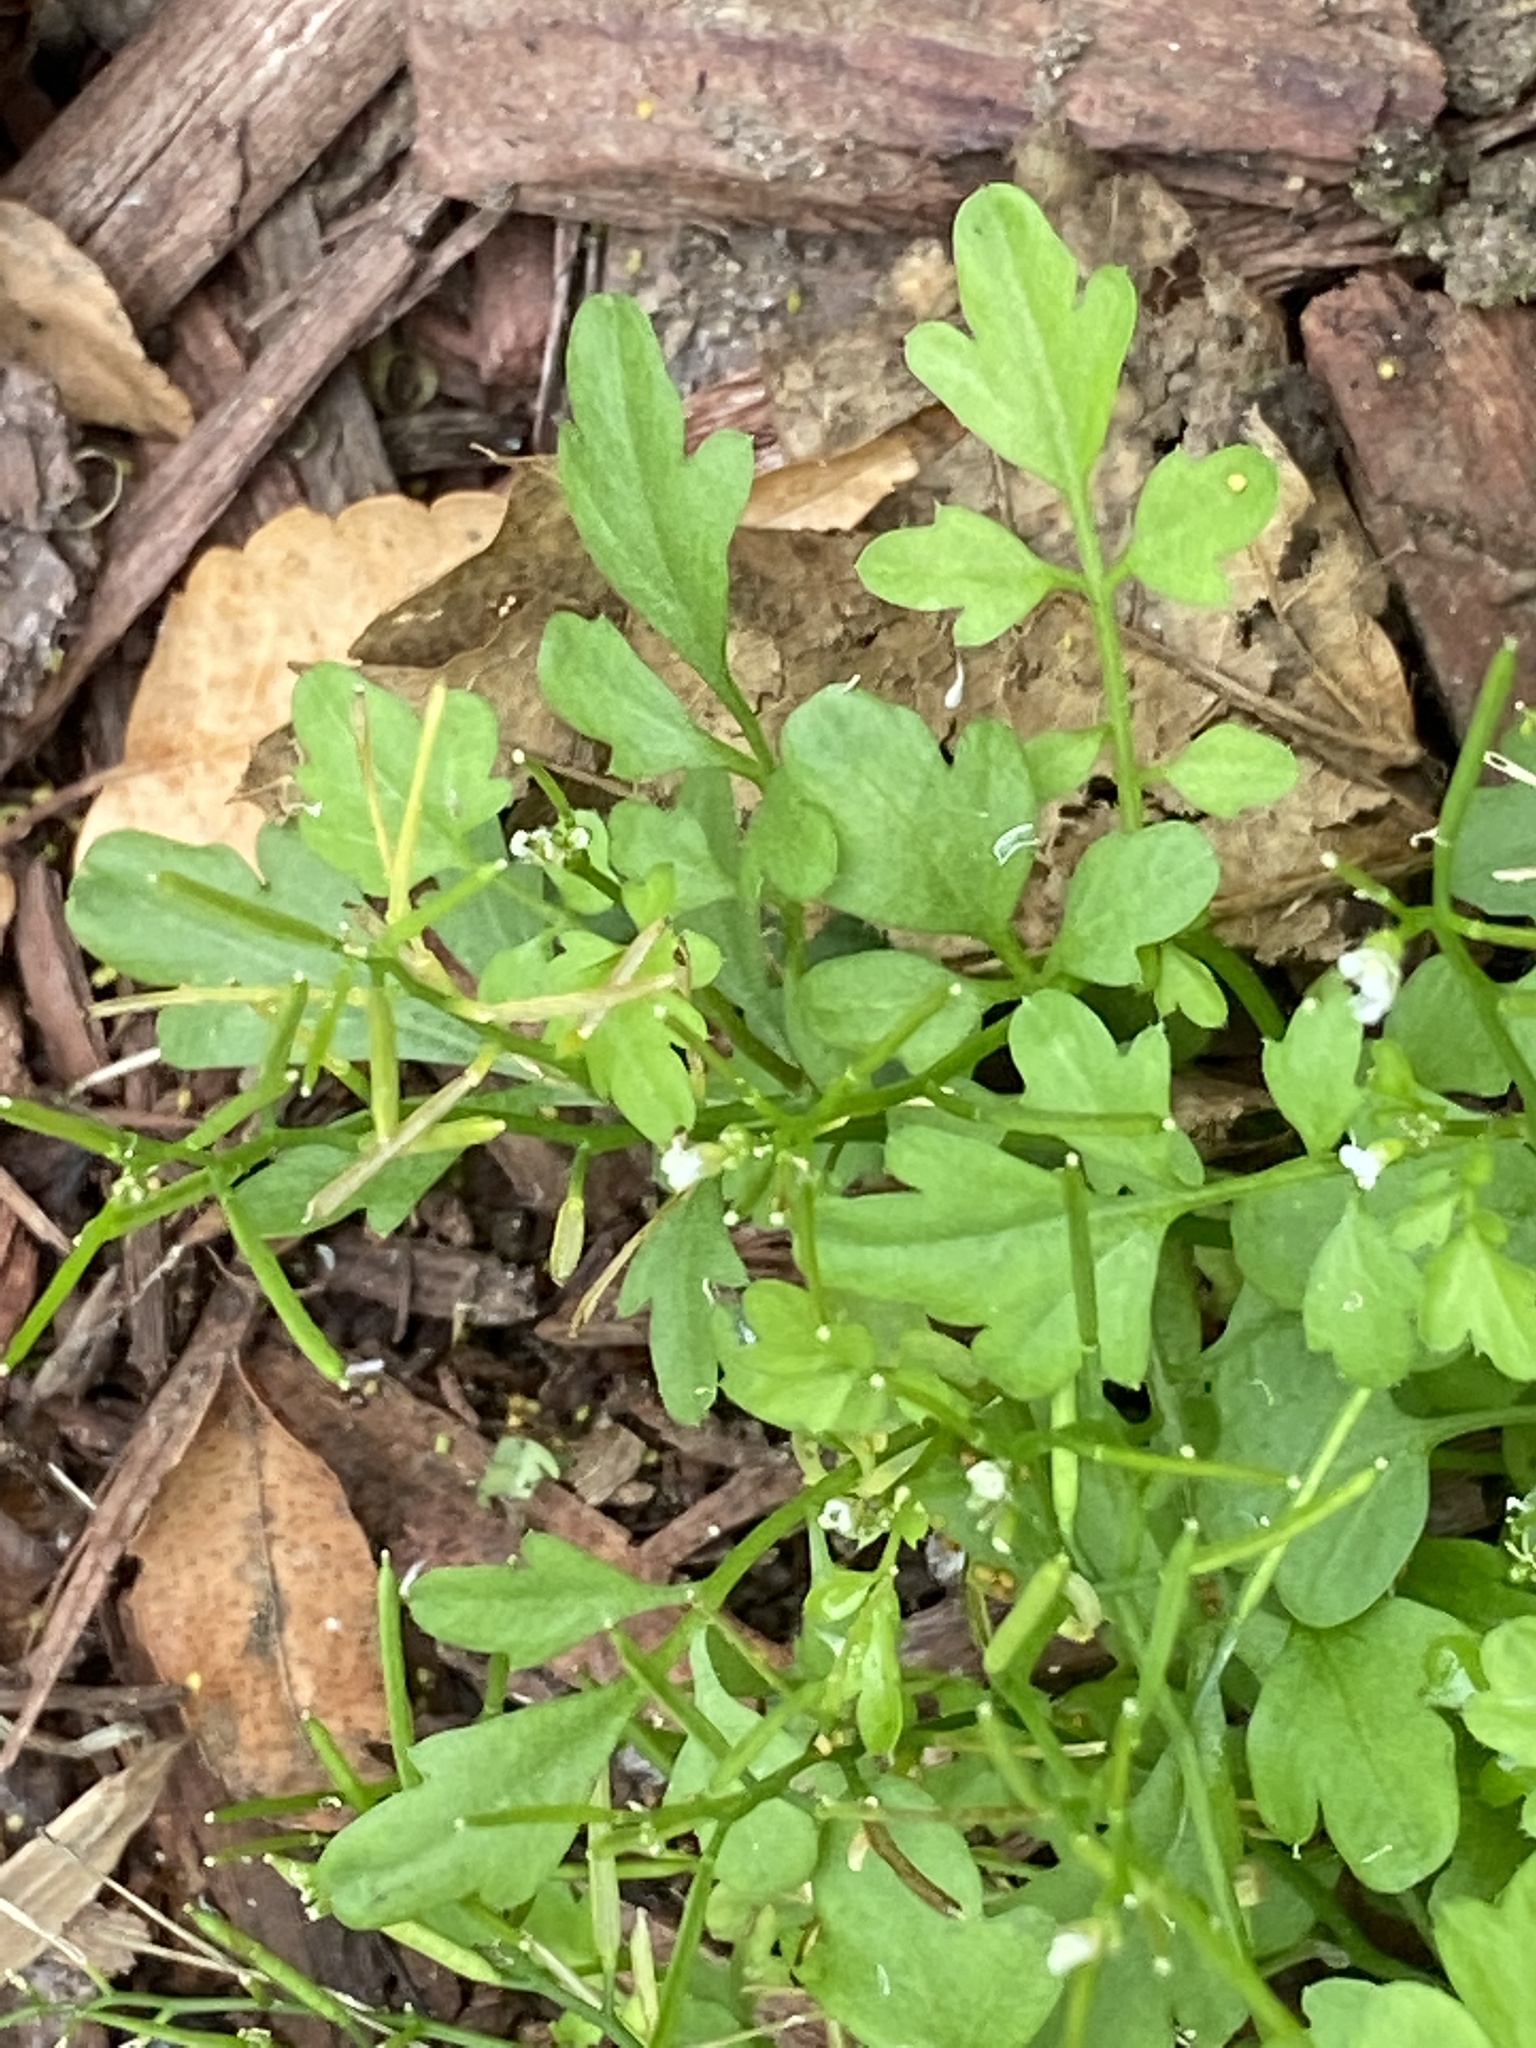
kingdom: Plantae
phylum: Tracheophyta
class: Magnoliopsida
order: Brassicales
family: Brassicaceae
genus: Cardamine
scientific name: Cardamine occulta
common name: Asian wavy bittercress
